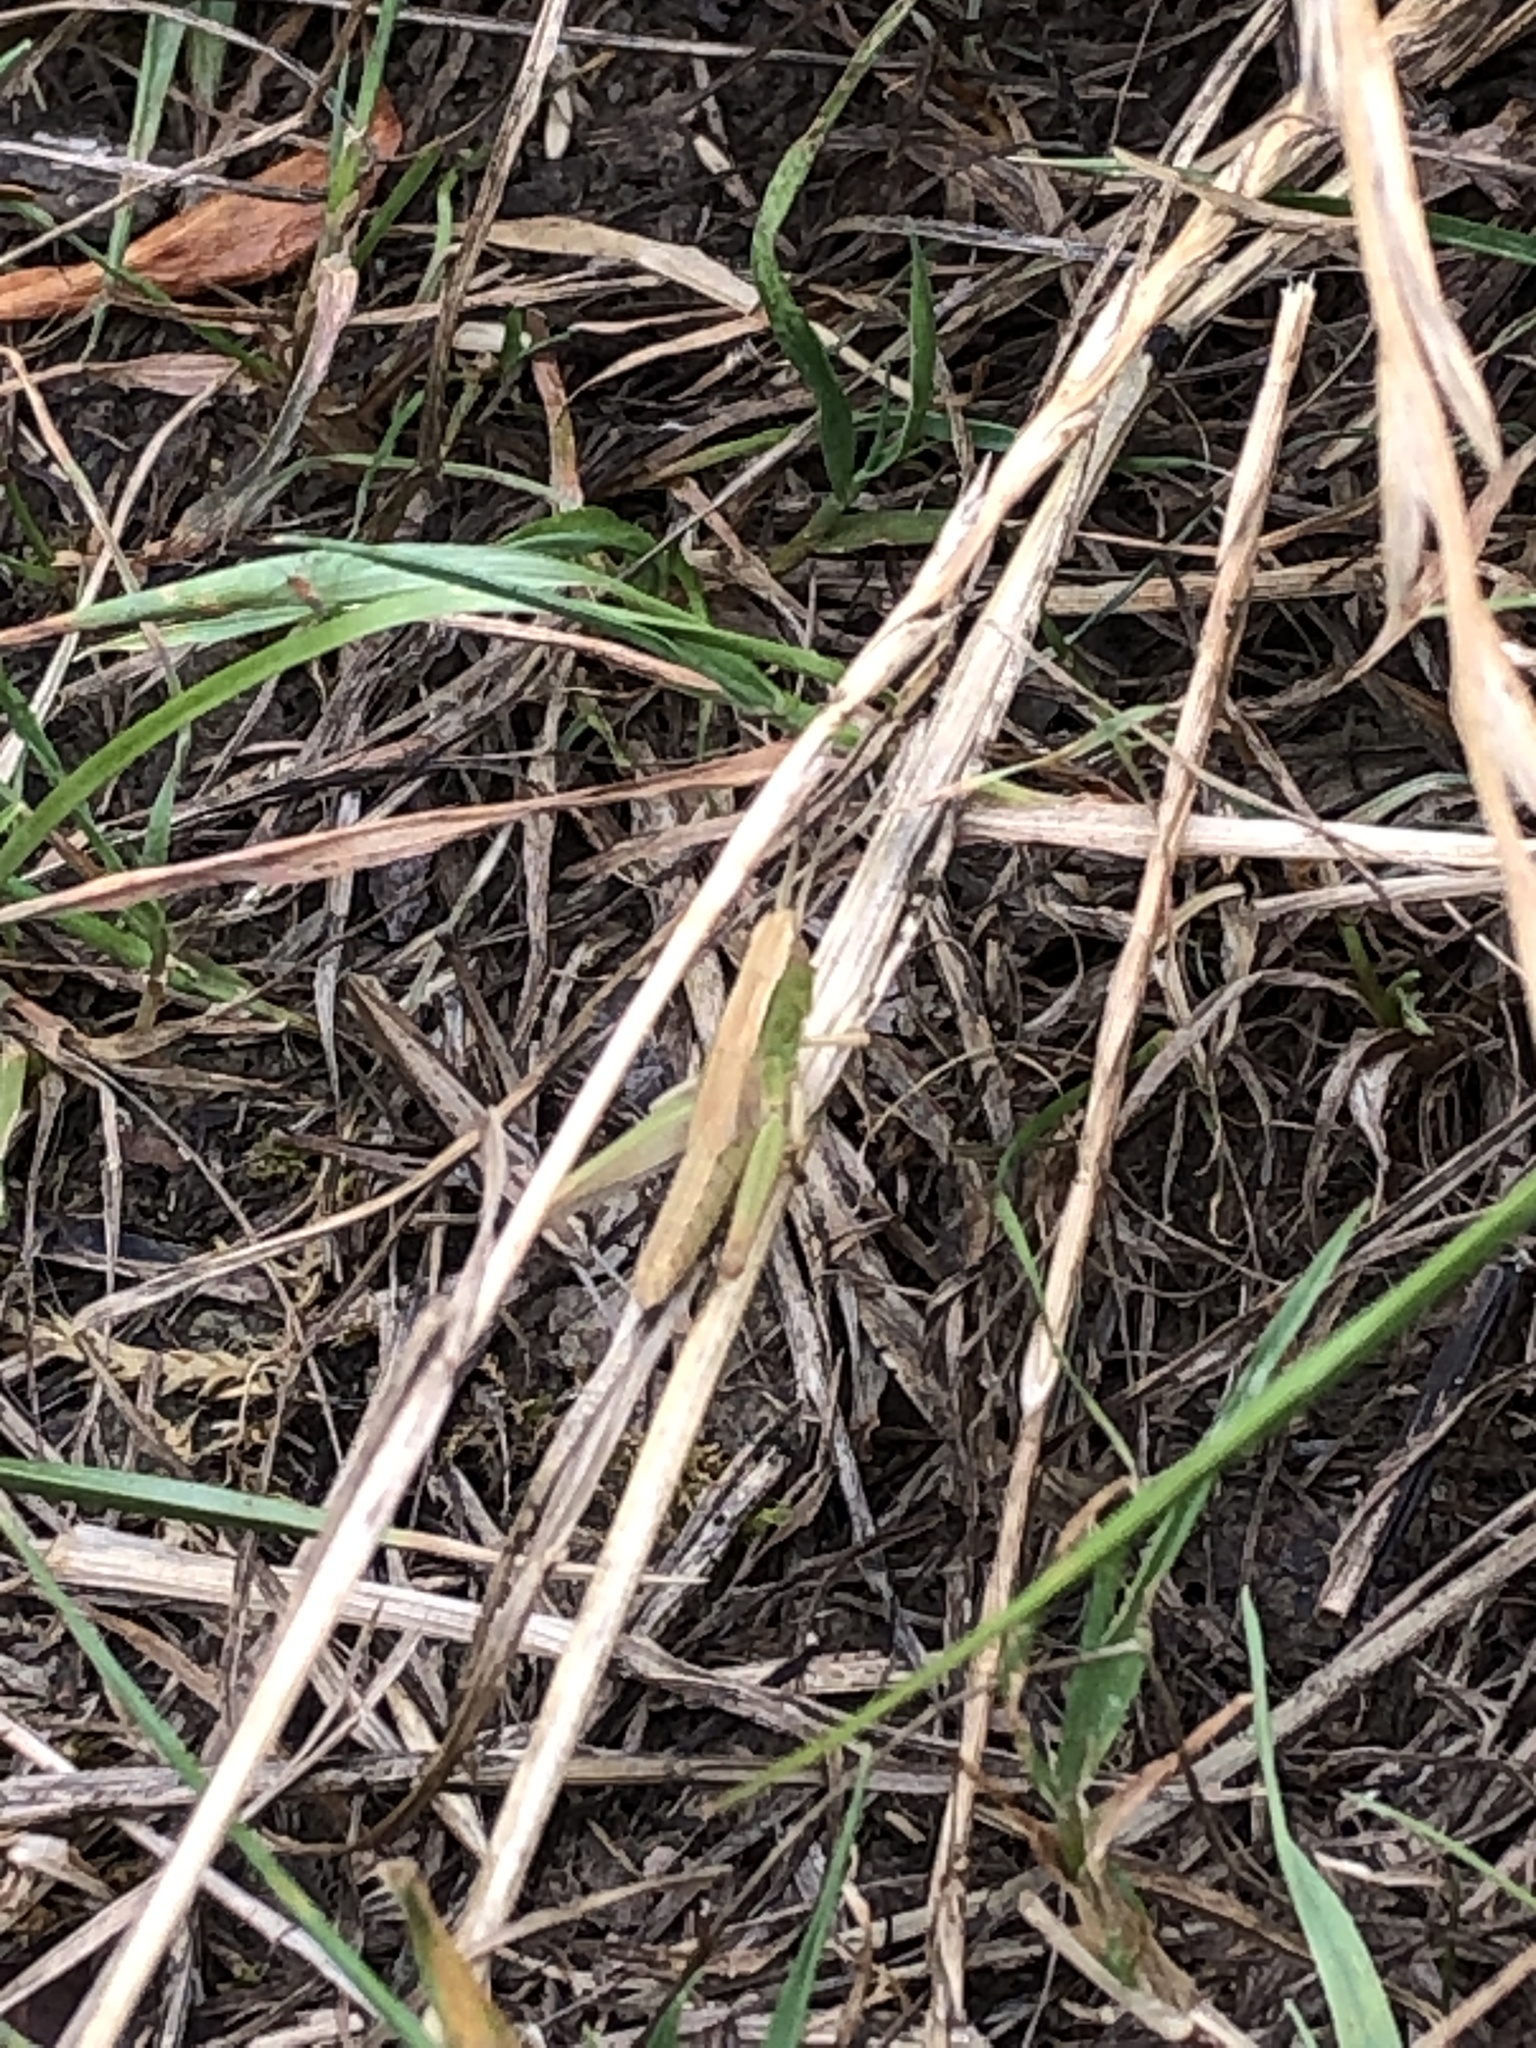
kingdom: Animalia
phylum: Arthropoda
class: Insecta
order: Orthoptera
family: Acrididae
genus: Chorthippus
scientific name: Chorthippus albomarginatus
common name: Lesser marsh grasshopper
